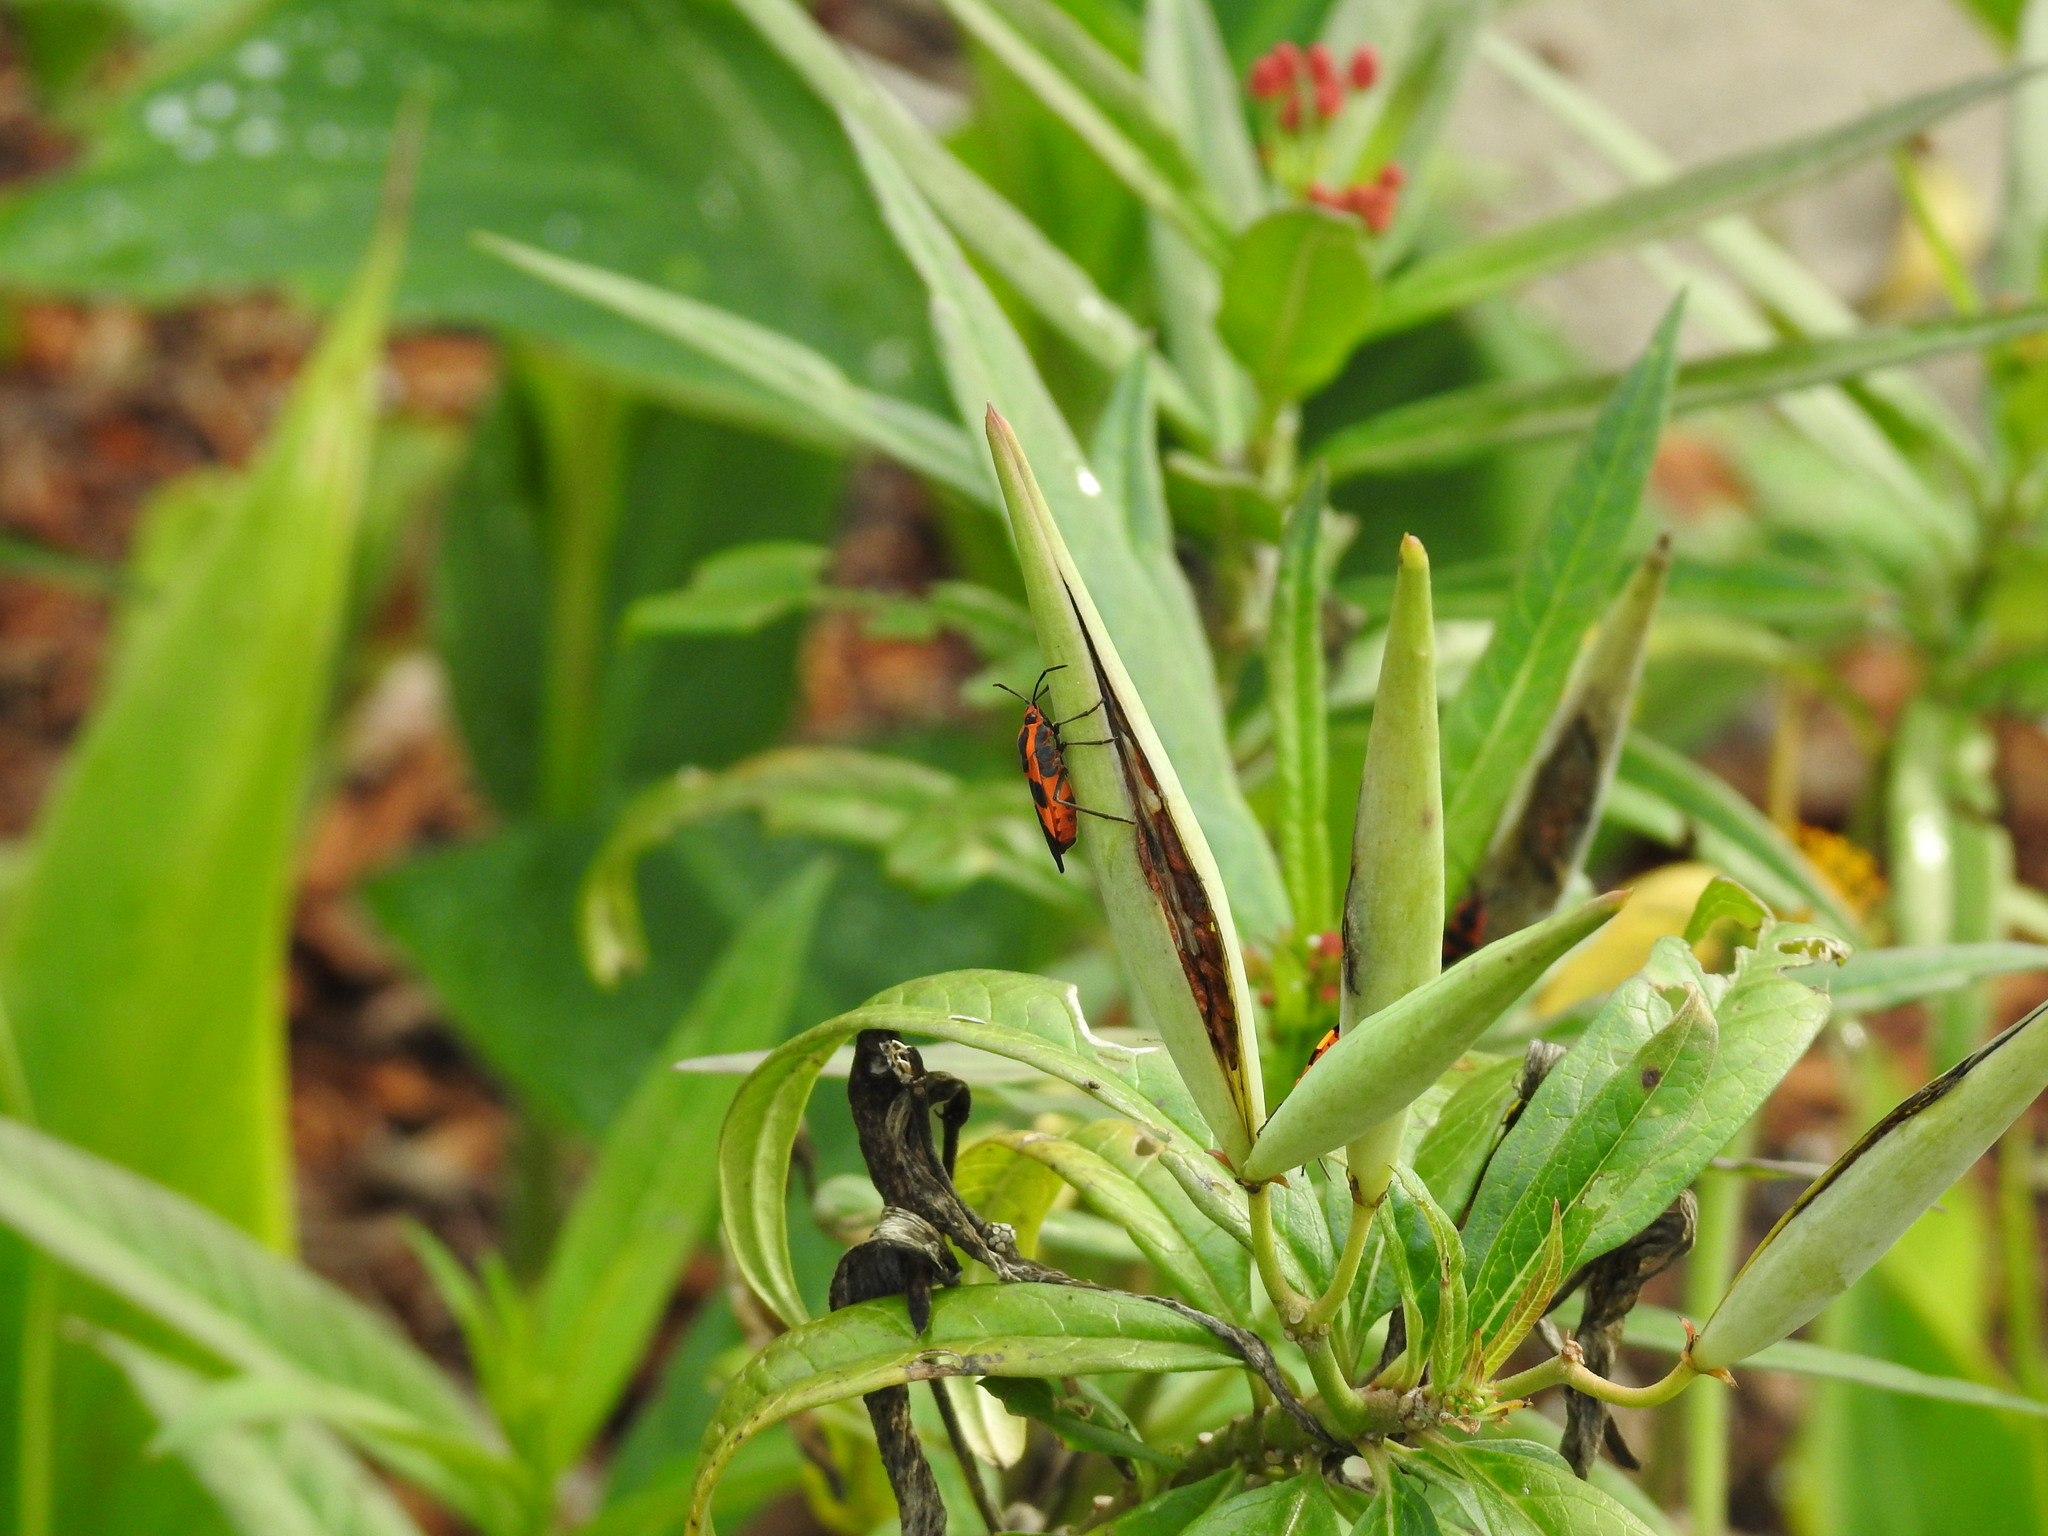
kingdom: Animalia
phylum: Arthropoda
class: Insecta
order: Hemiptera
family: Lygaeidae
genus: Oncopeltus
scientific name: Oncopeltus fasciatus
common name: Large milkweed bug
